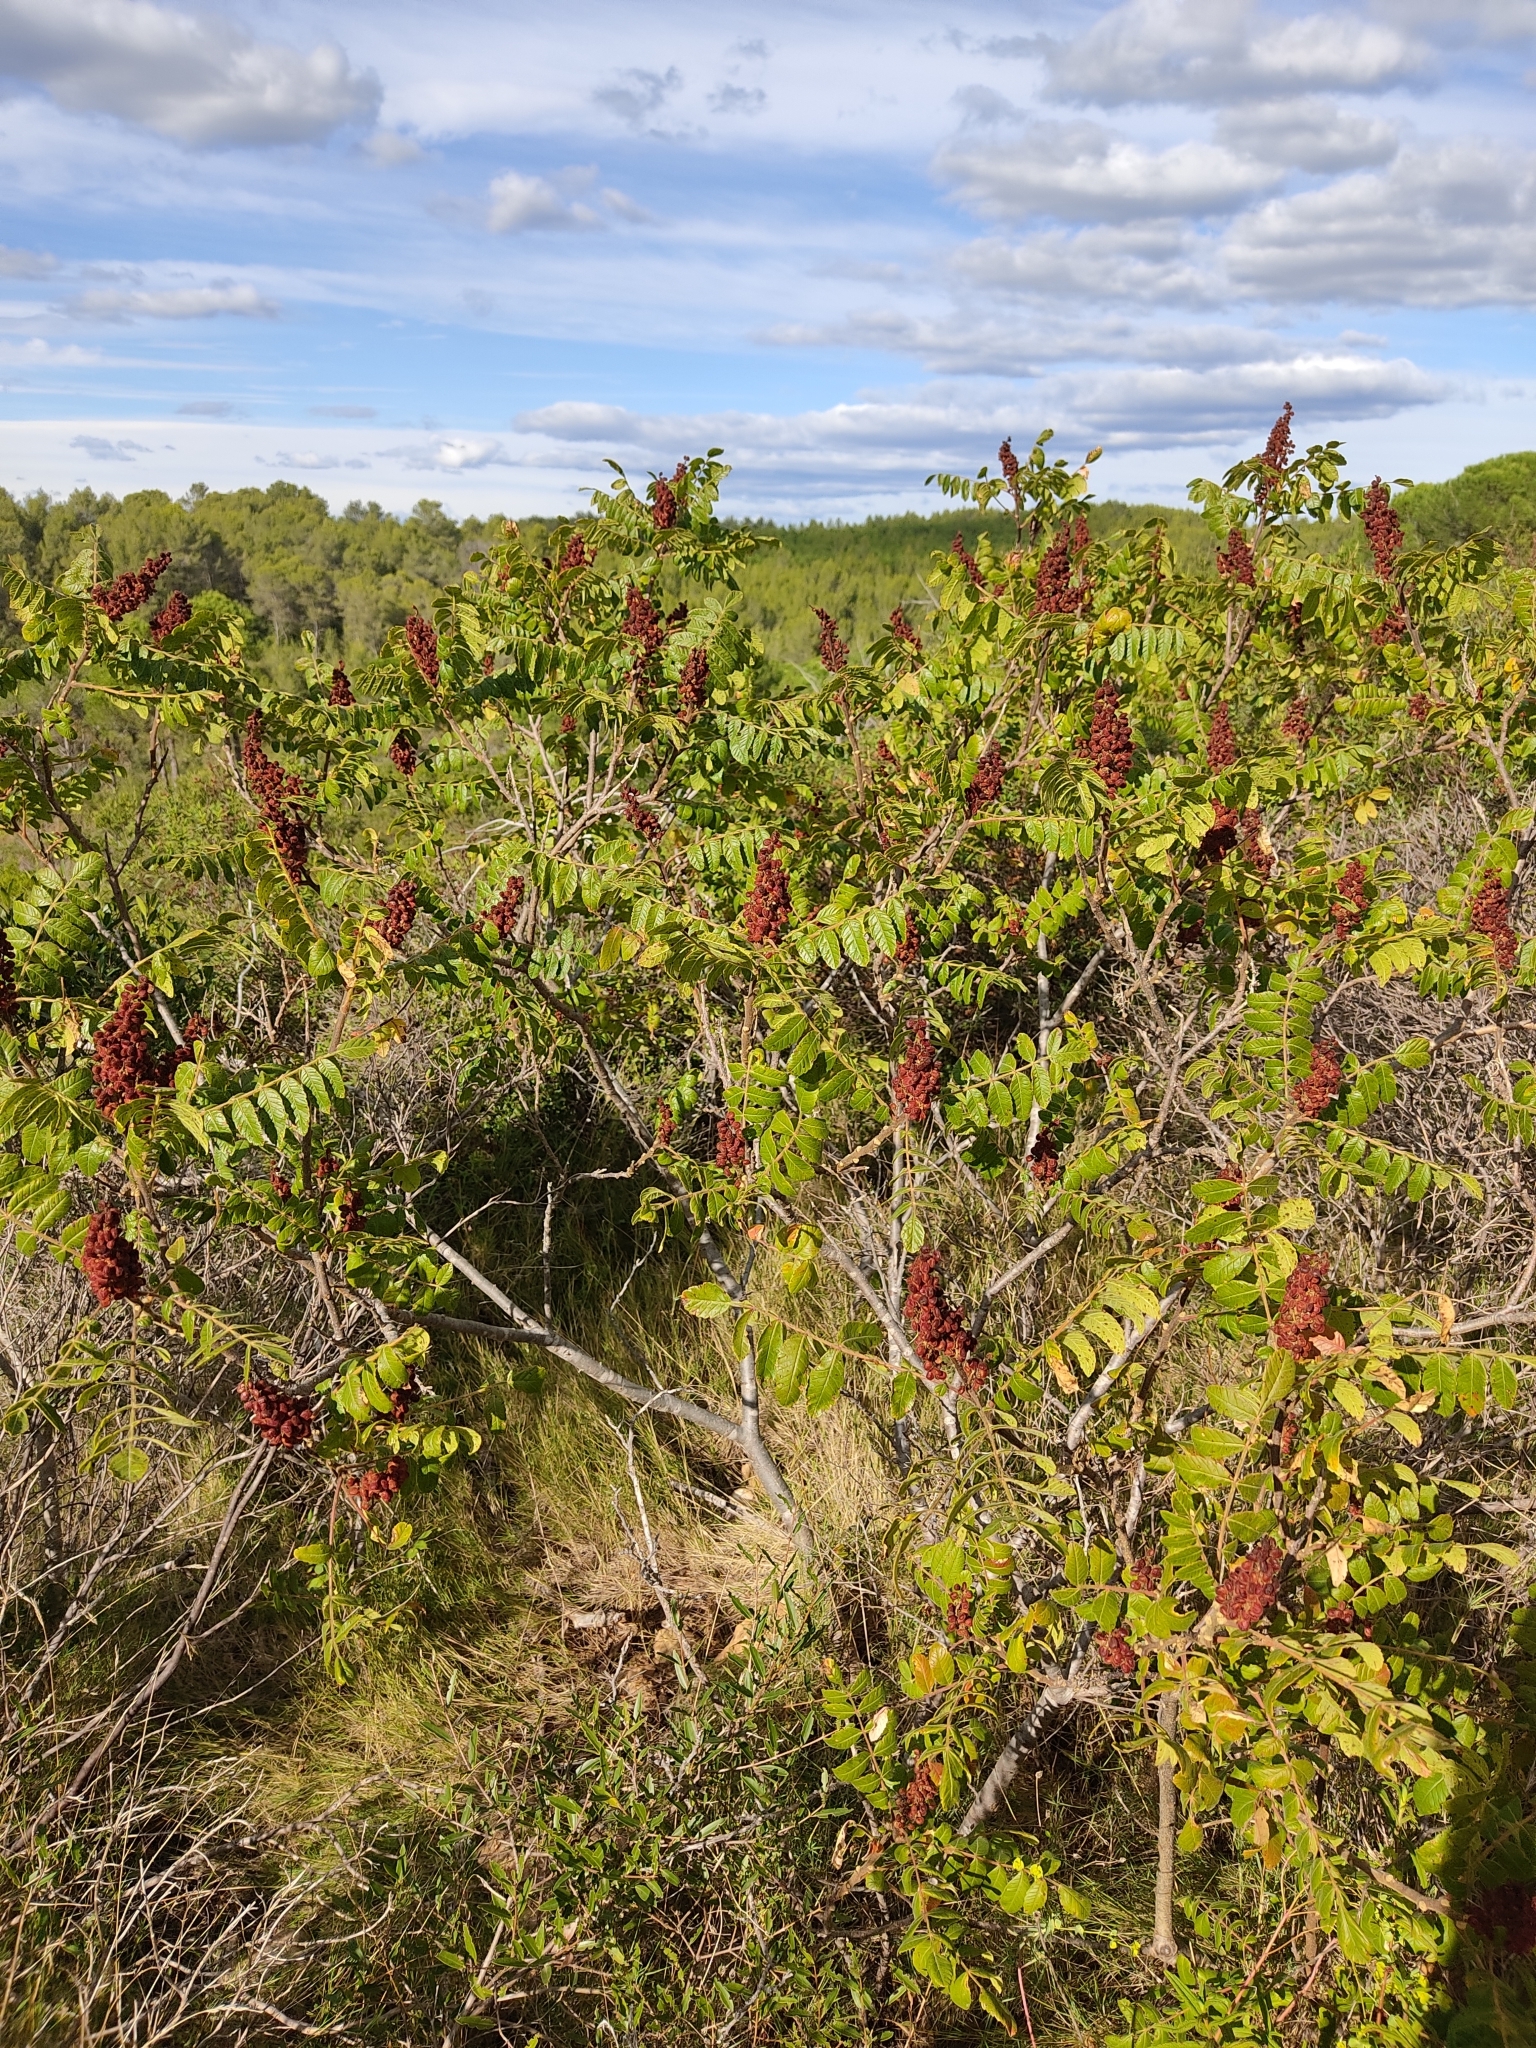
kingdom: Plantae
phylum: Tracheophyta
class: Magnoliopsida
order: Sapindales
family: Anacardiaceae
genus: Rhus
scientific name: Rhus coriaria
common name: Tanner's sumach
